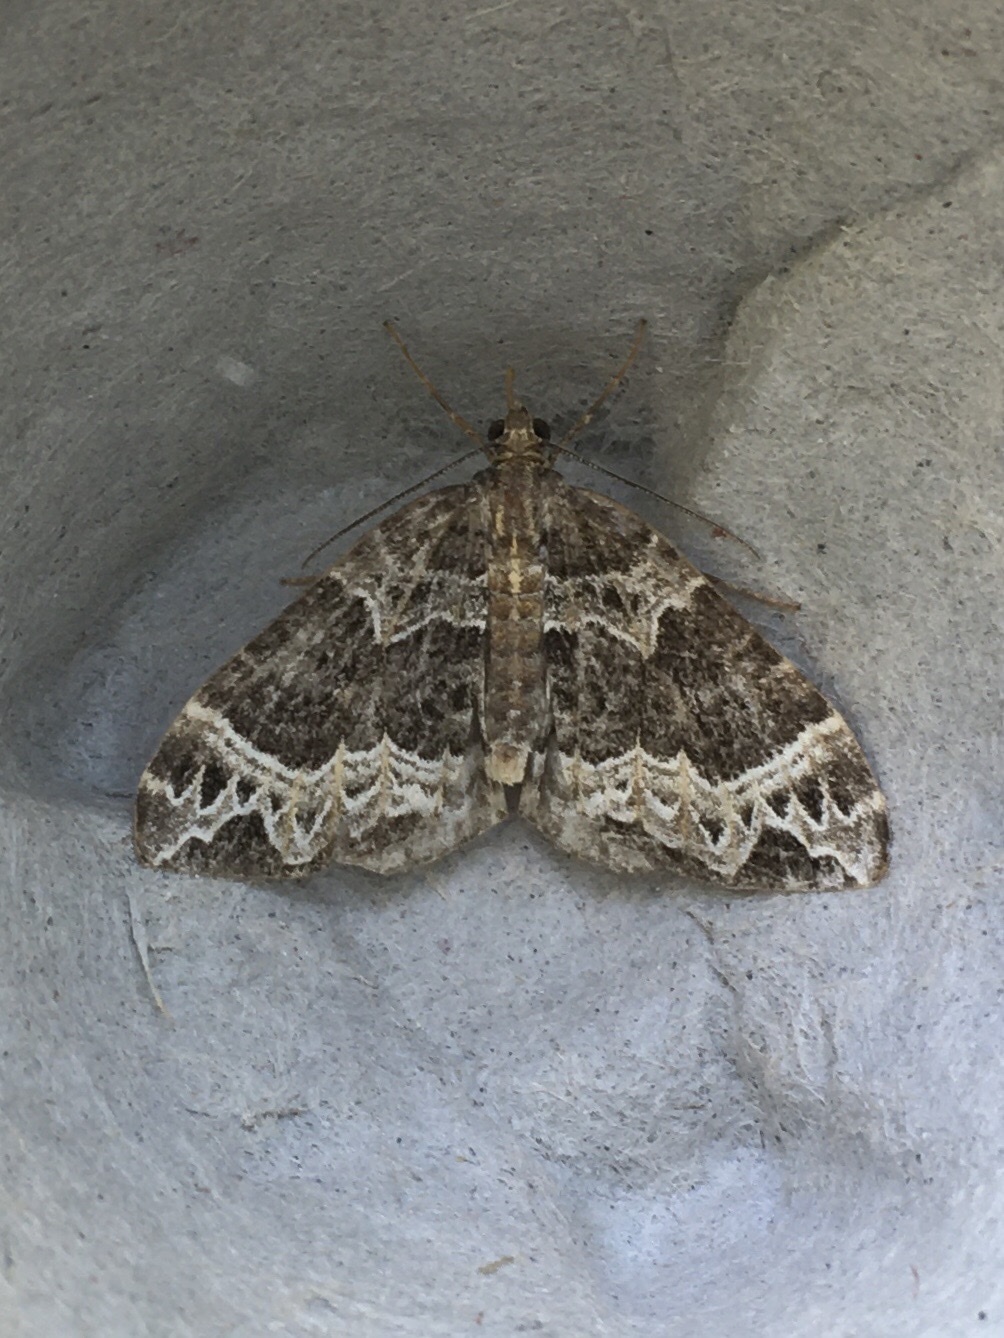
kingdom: Animalia
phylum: Arthropoda
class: Insecta
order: Lepidoptera
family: Geometridae
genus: Ecliptopera
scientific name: Ecliptopera silaceata
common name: Small phoenix
